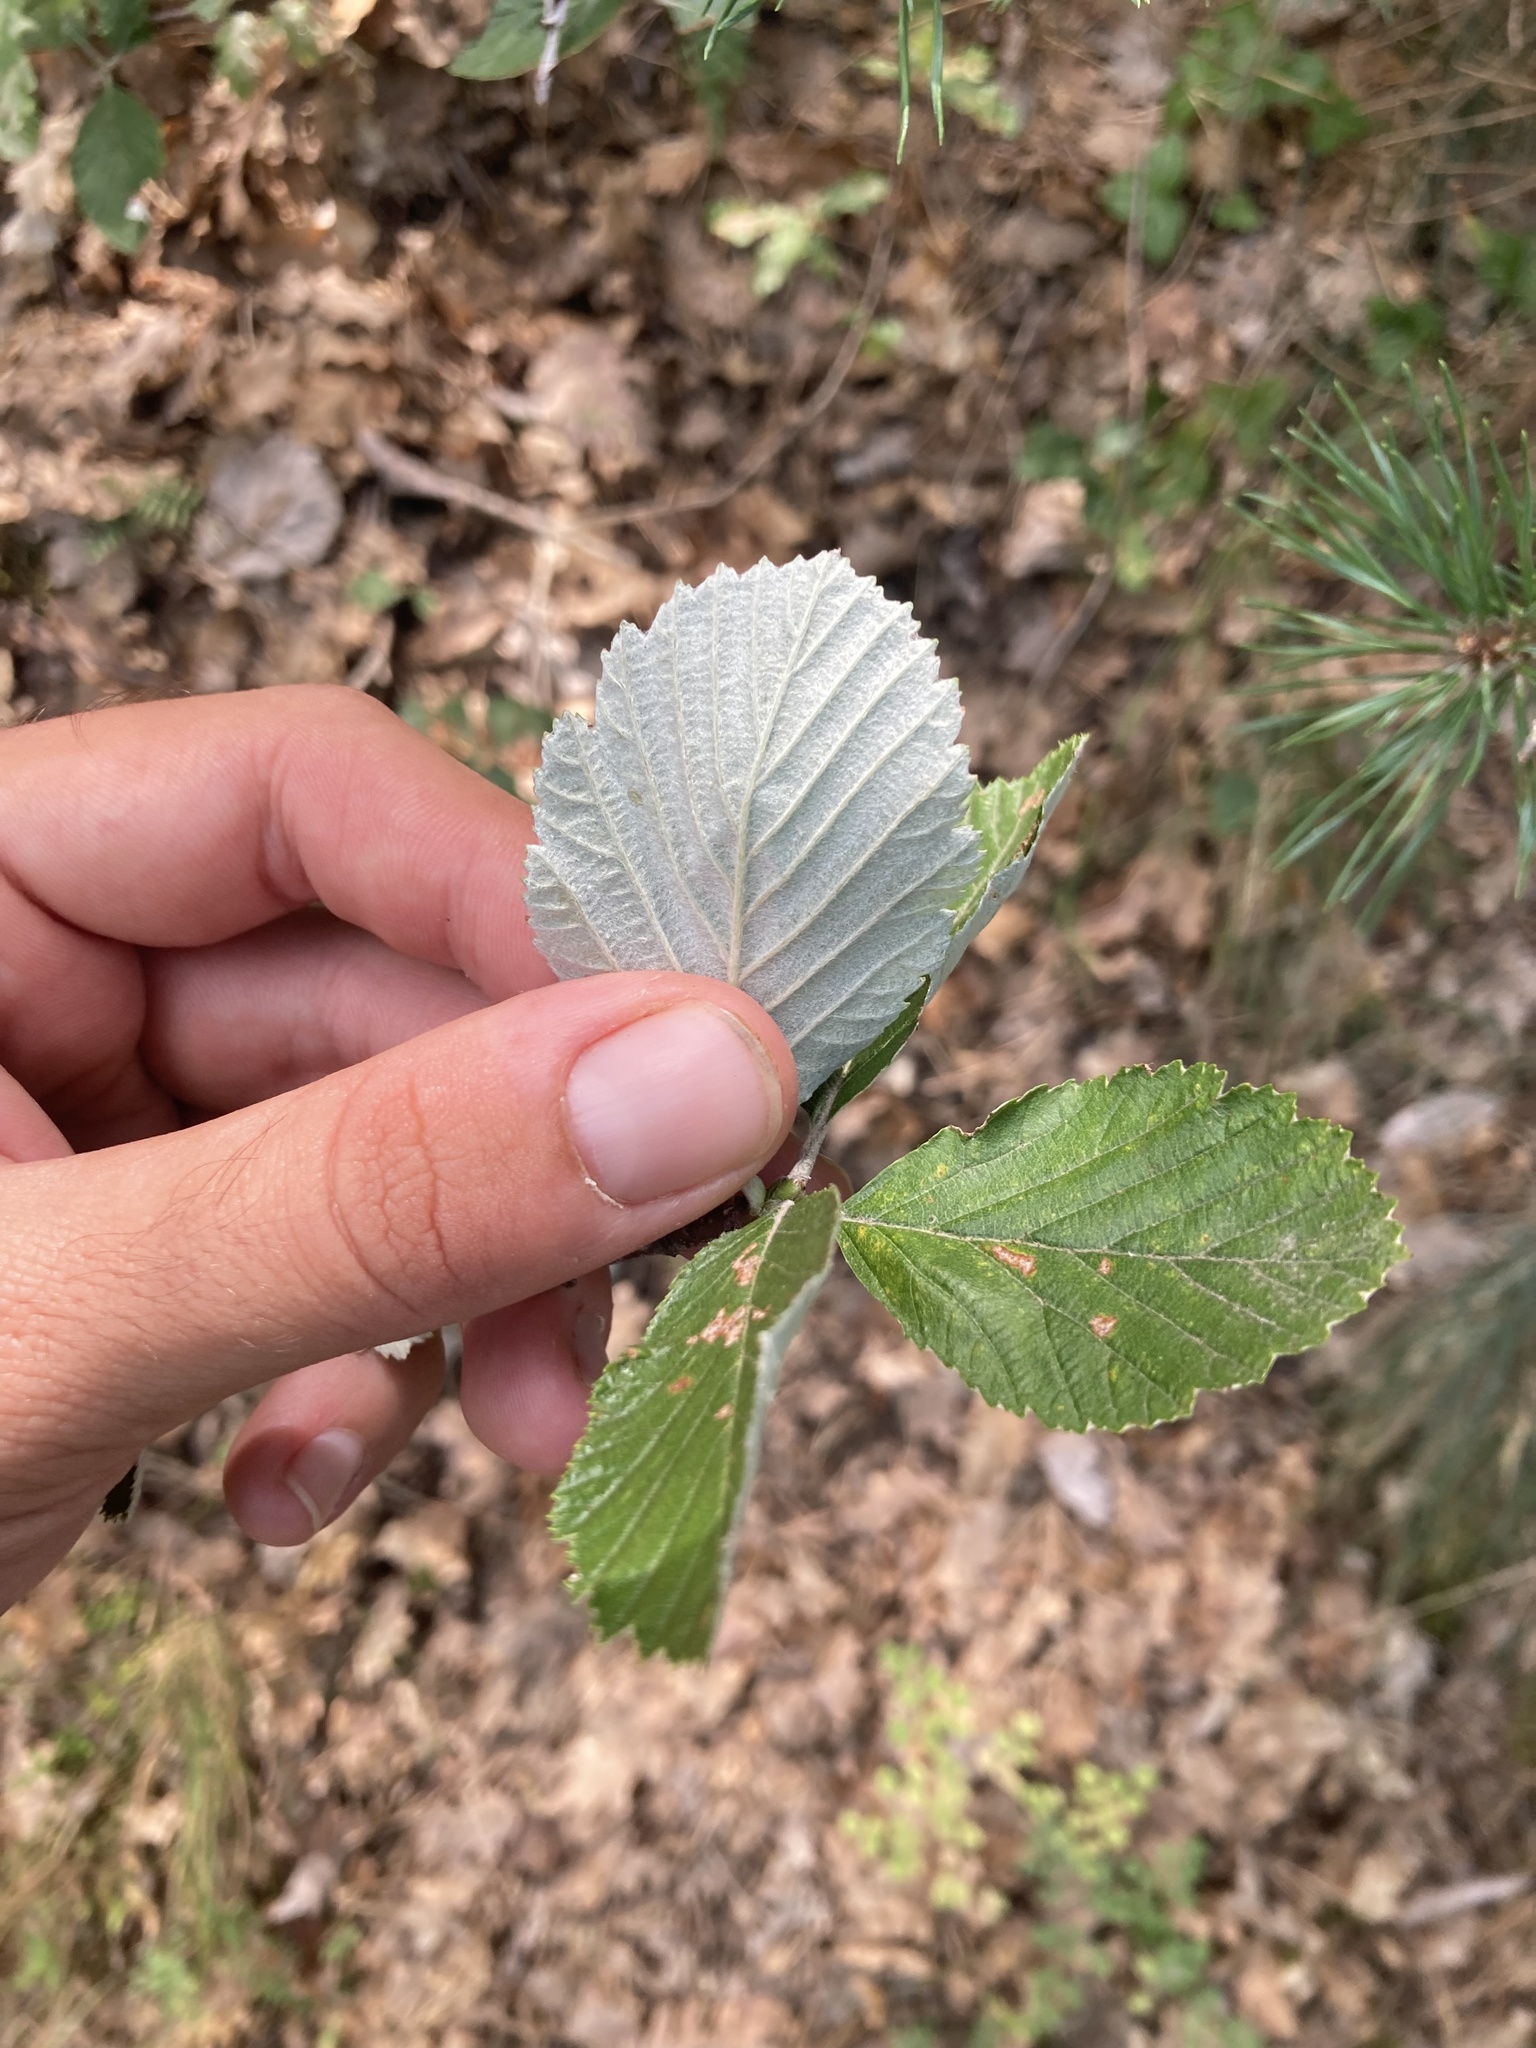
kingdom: Plantae
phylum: Tracheophyta
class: Magnoliopsida
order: Rosales
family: Rosaceae
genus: Aria
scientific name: Aria edulis
